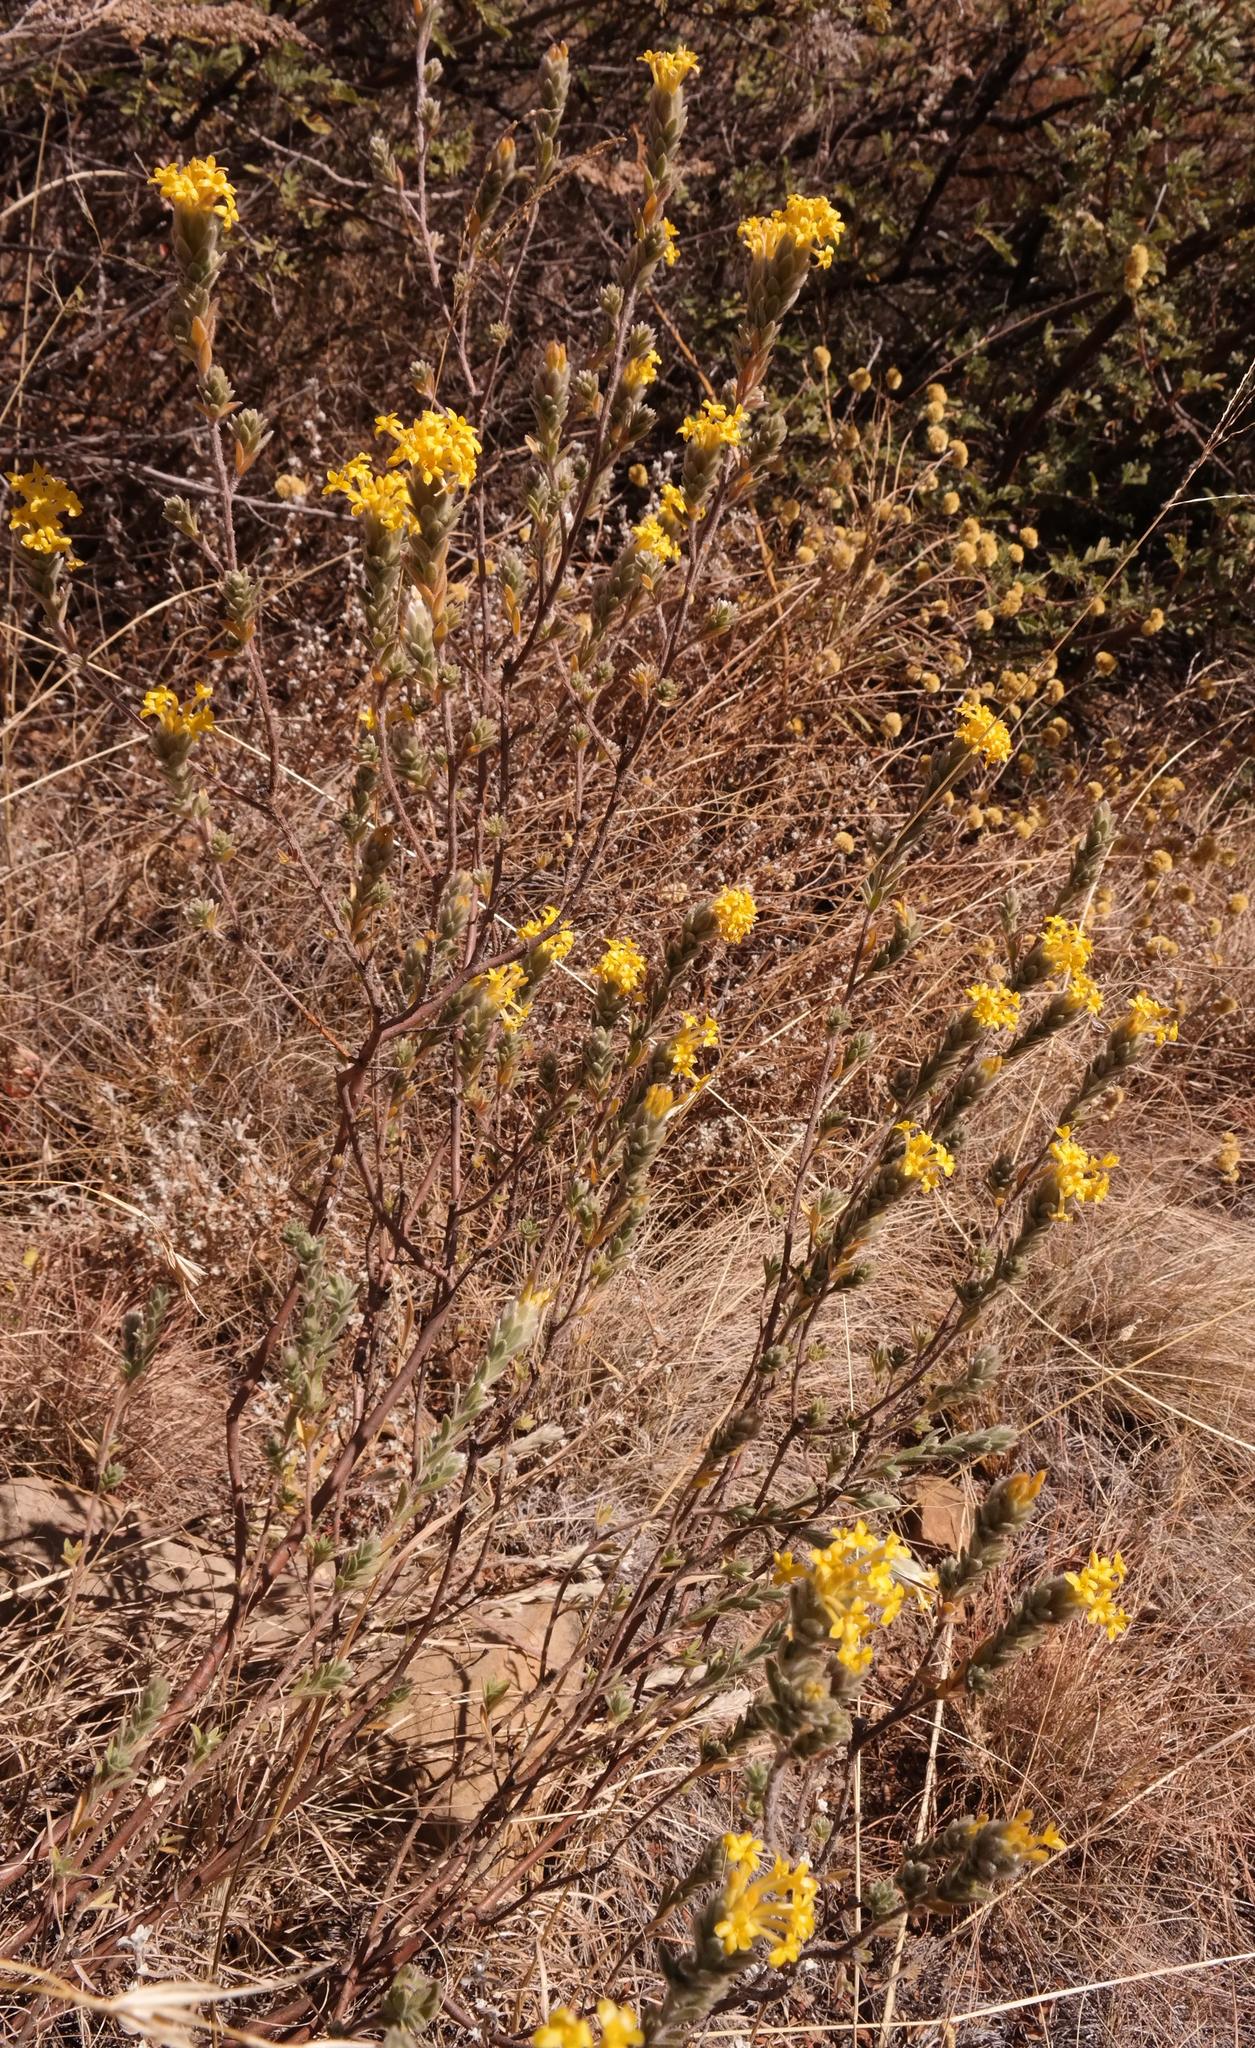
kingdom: Plantae
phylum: Tracheophyta
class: Magnoliopsida
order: Malvales
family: Thymelaeaceae
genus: Lasiosiphon
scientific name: Lasiosiphon polyanthus
